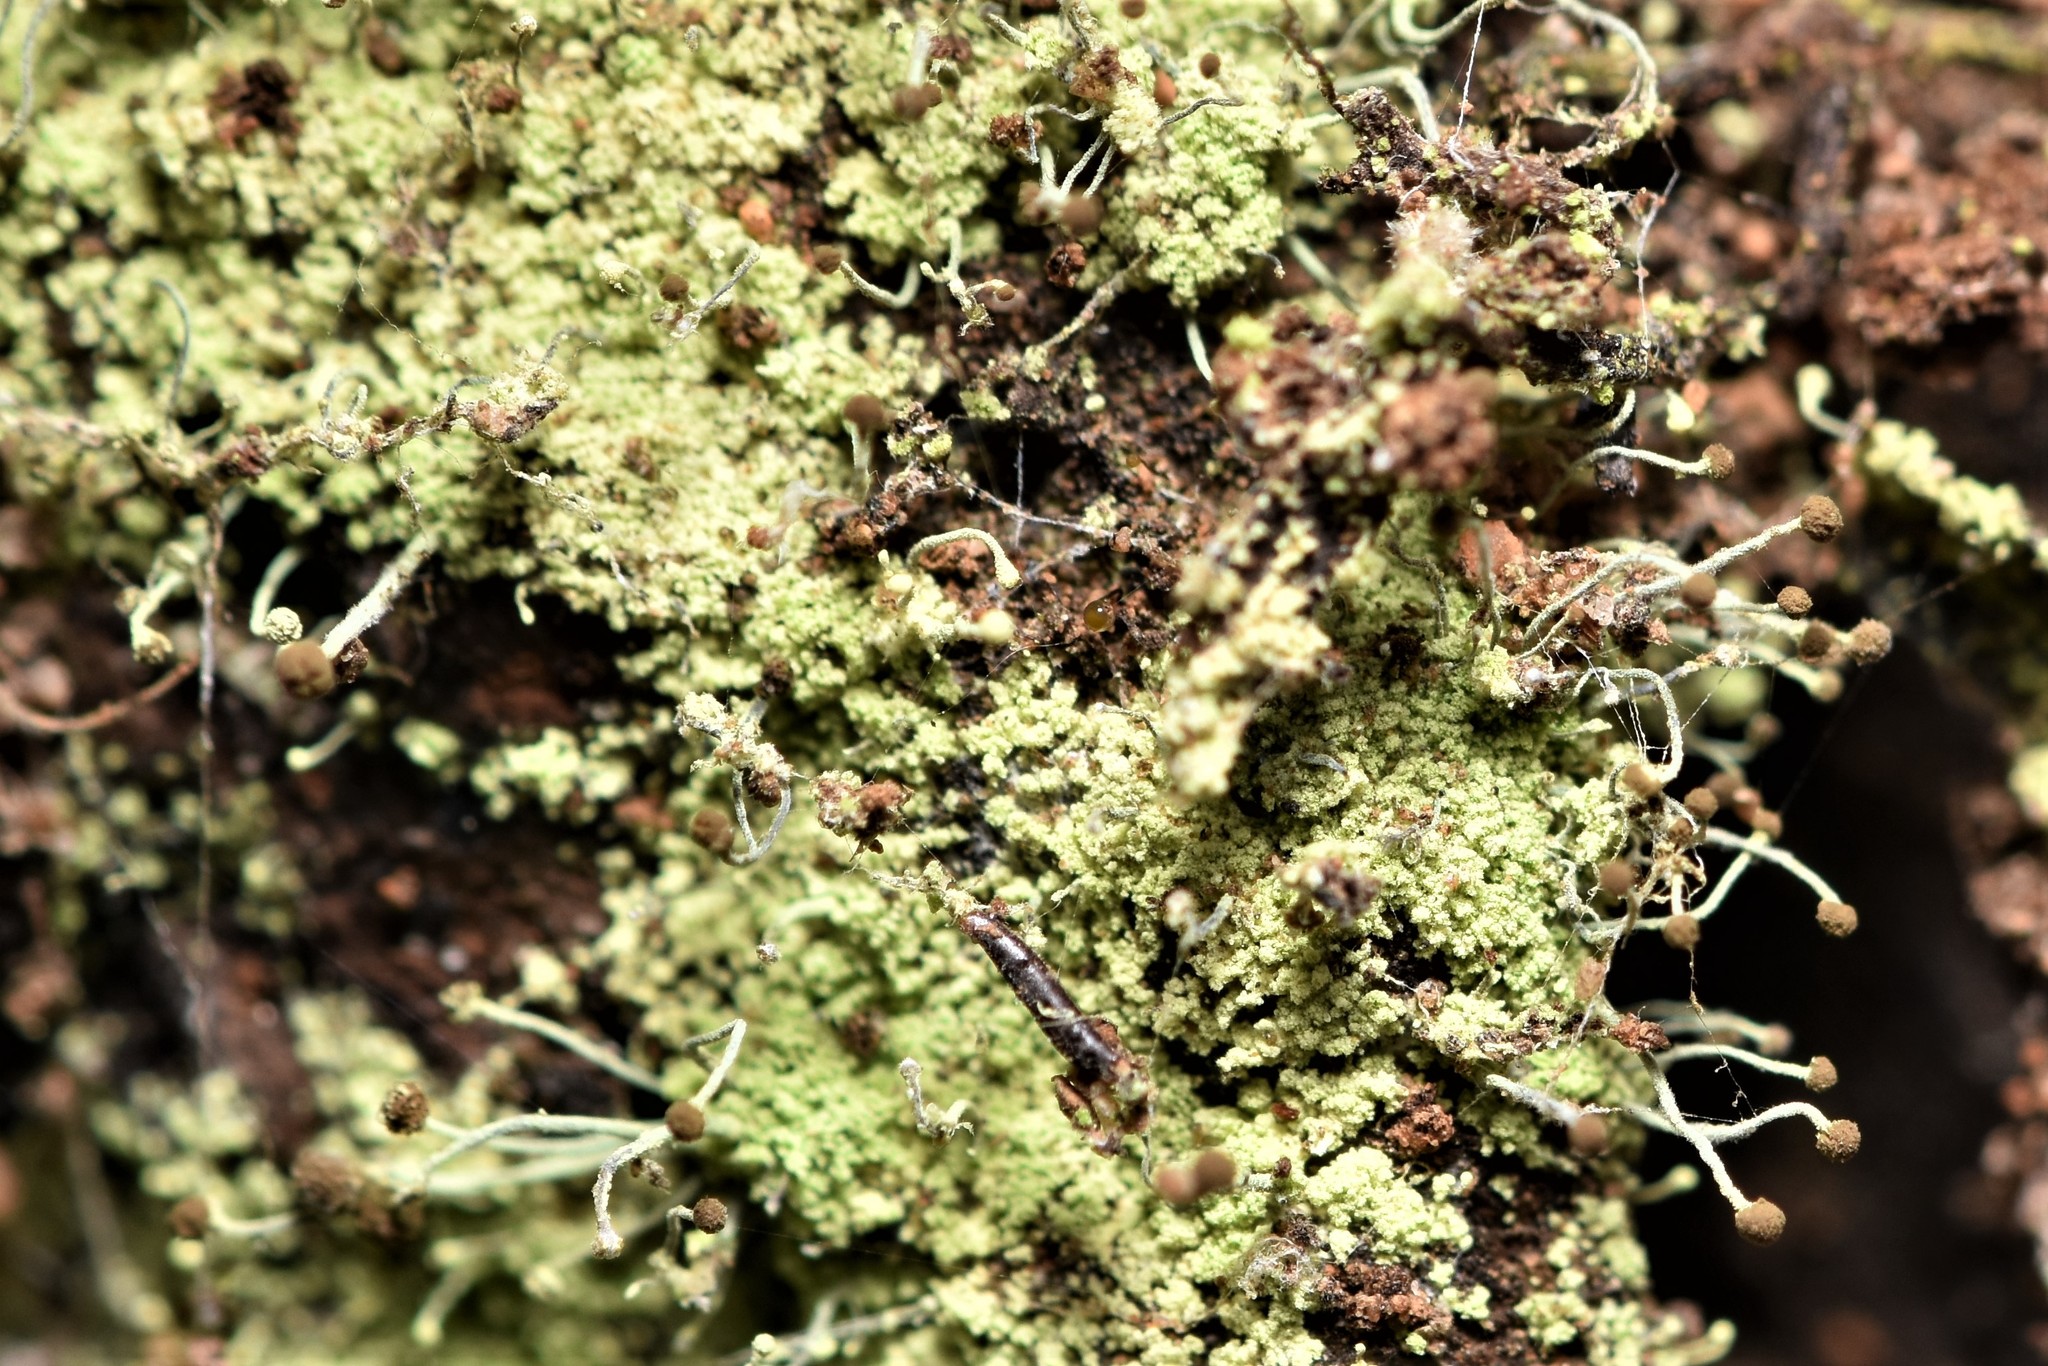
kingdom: Fungi
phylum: Ascomycota
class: Coniocybomycetes
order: Coniocybales
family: Coniocybaceae
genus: Chaenotheca
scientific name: Chaenotheca furfuracea
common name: Sulphur stubble lichen
